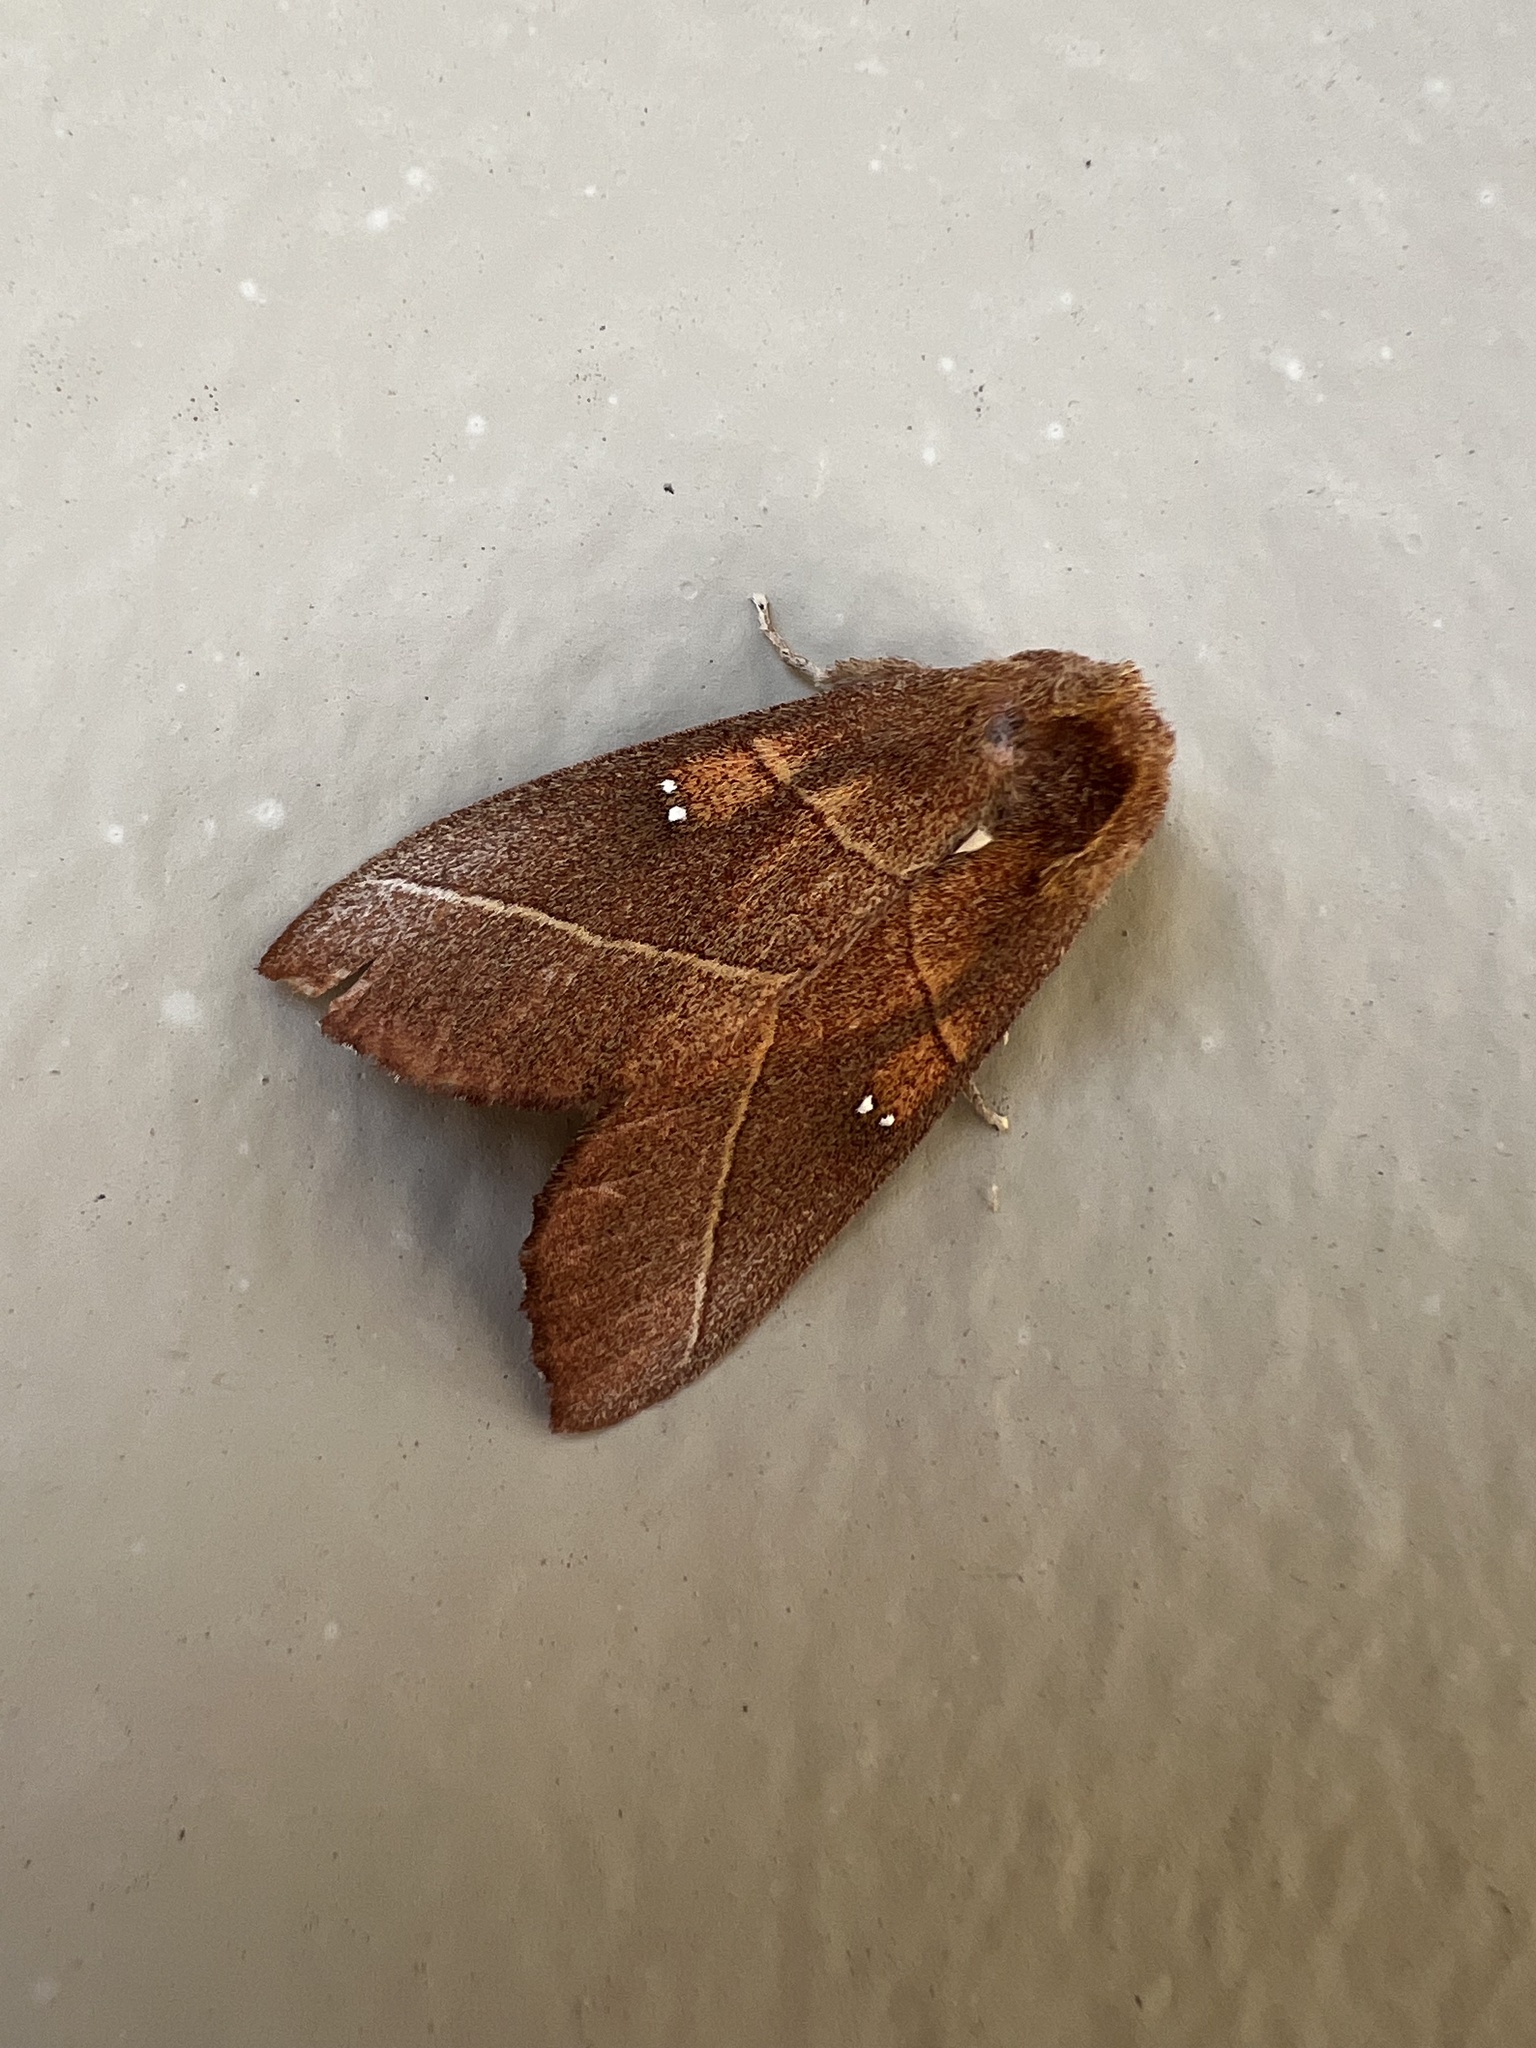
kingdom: Animalia
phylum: Arthropoda
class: Insecta
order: Lepidoptera
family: Notodontidae
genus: Nadata
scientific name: Nadata gibbosa
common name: White-dotted prominent
